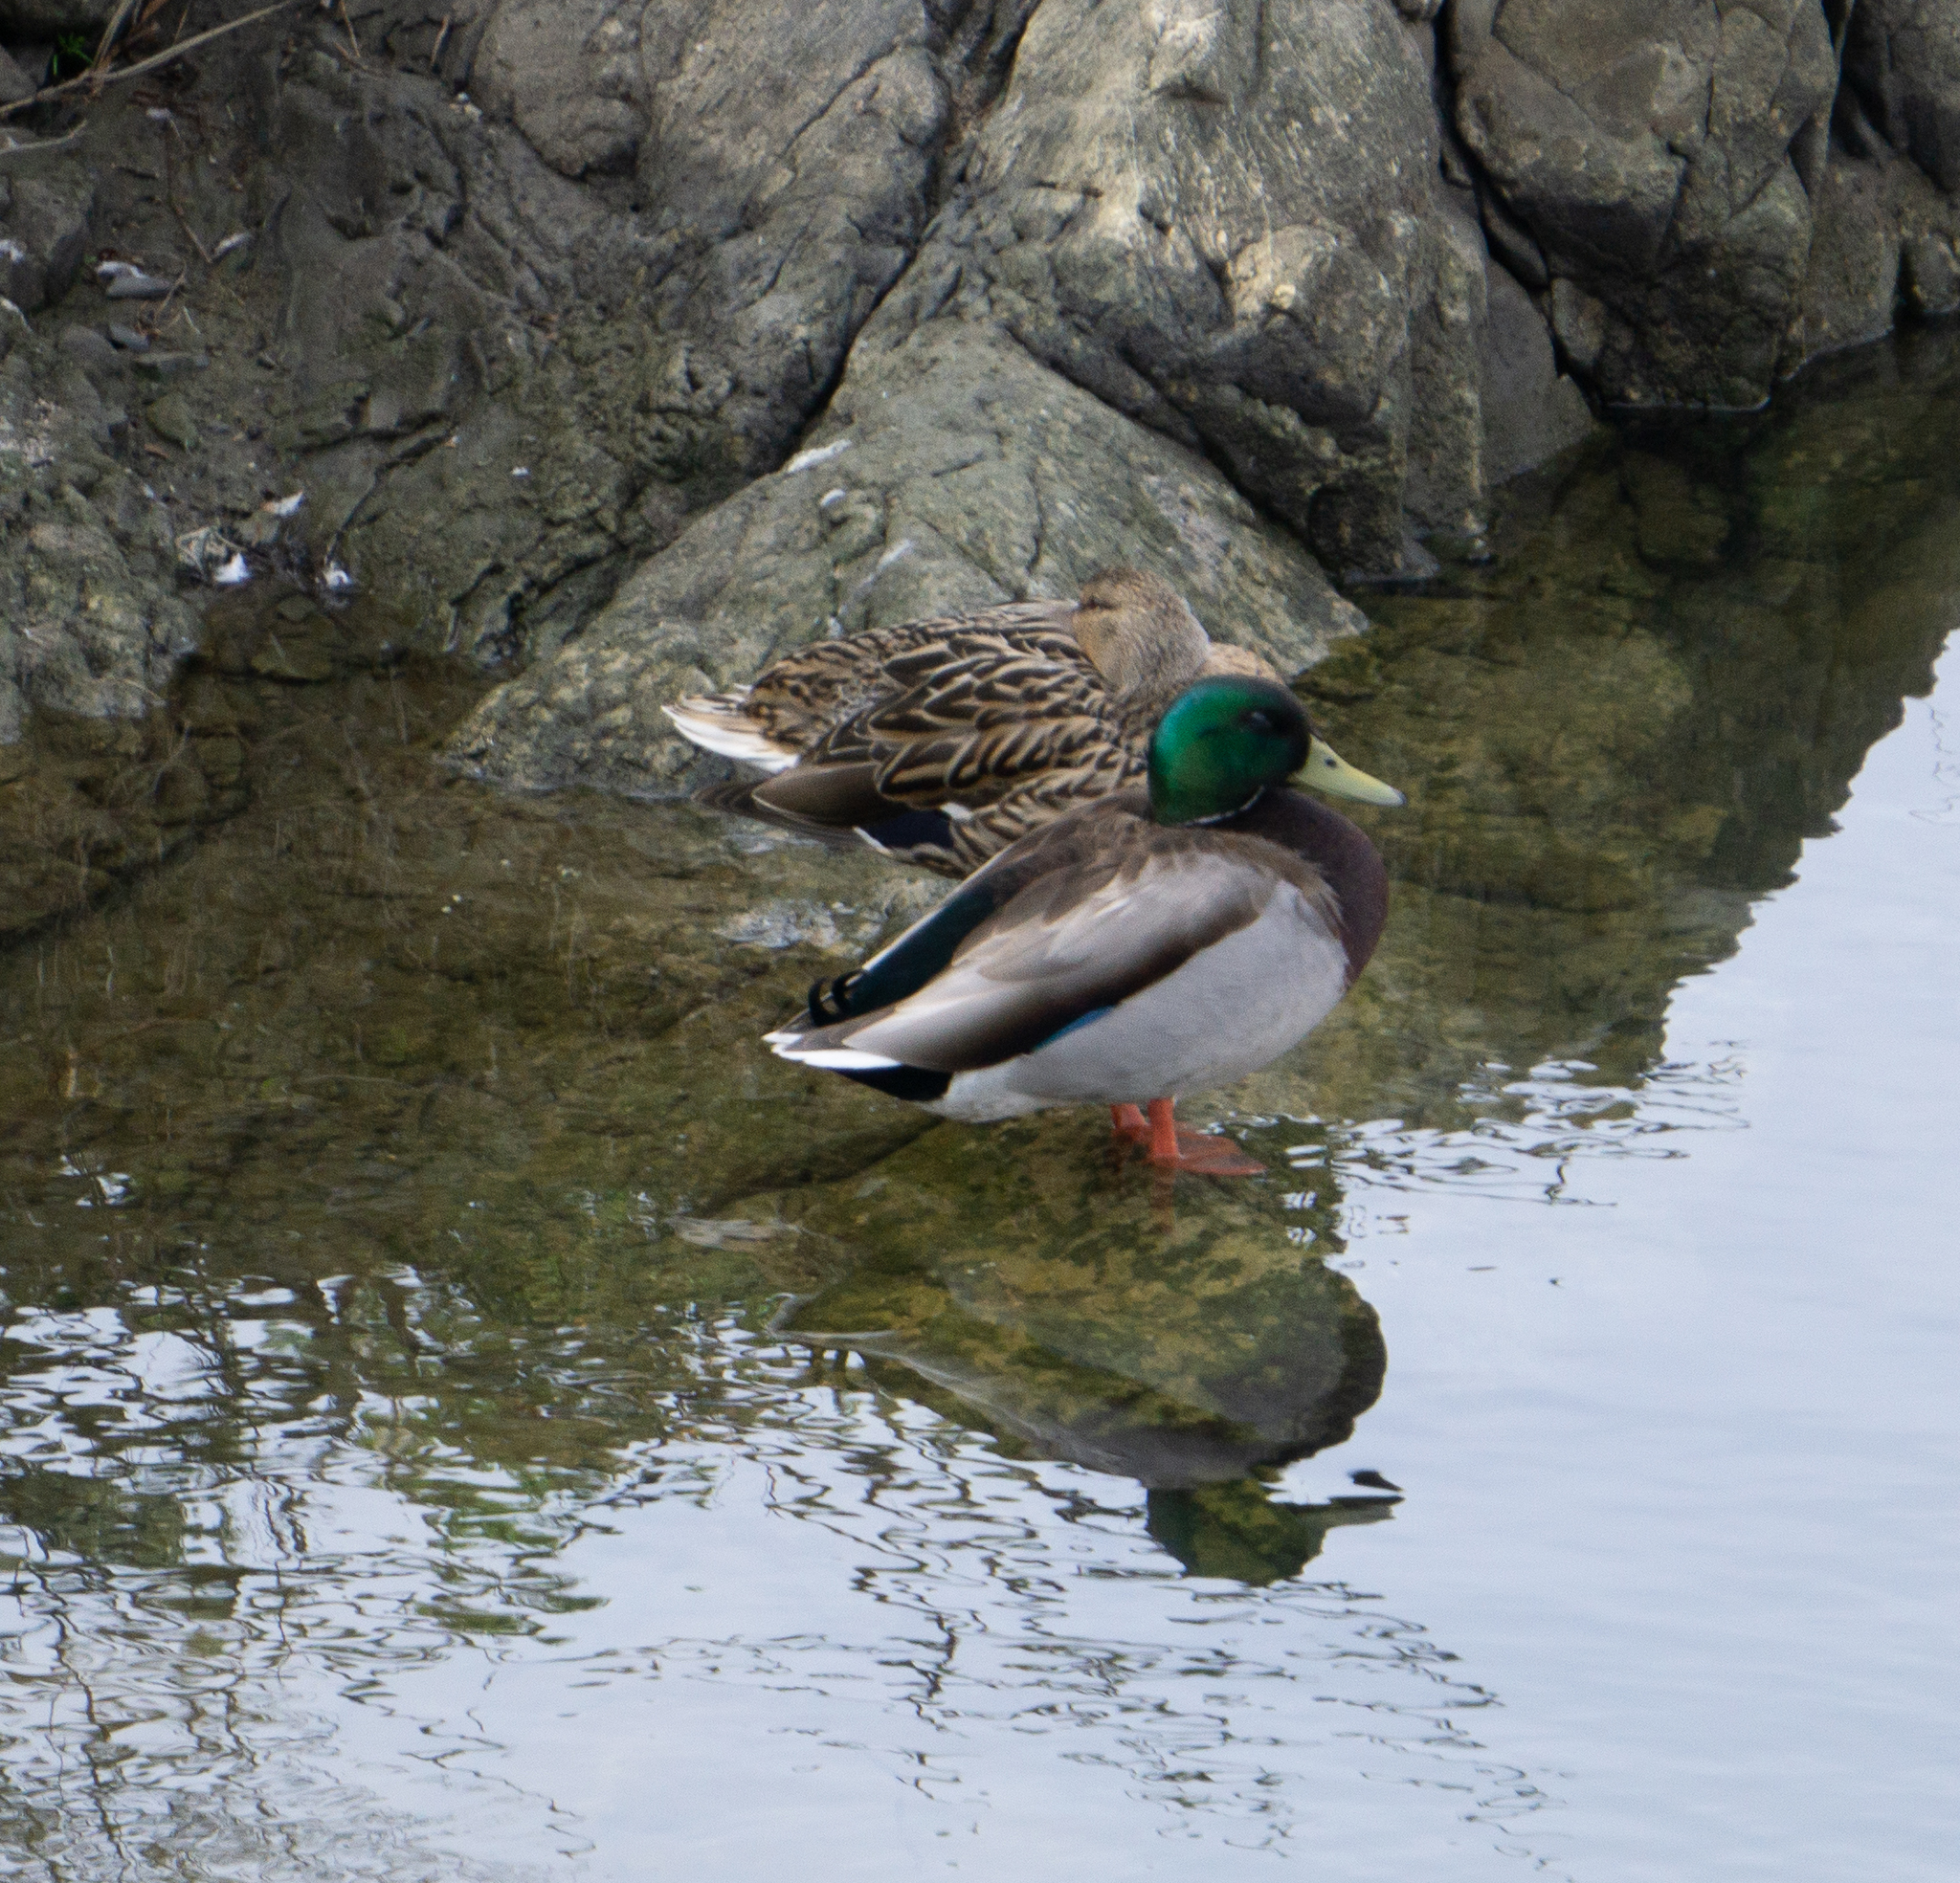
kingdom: Animalia
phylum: Chordata
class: Aves
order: Anseriformes
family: Anatidae
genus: Anas
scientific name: Anas platyrhynchos
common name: Mallard
